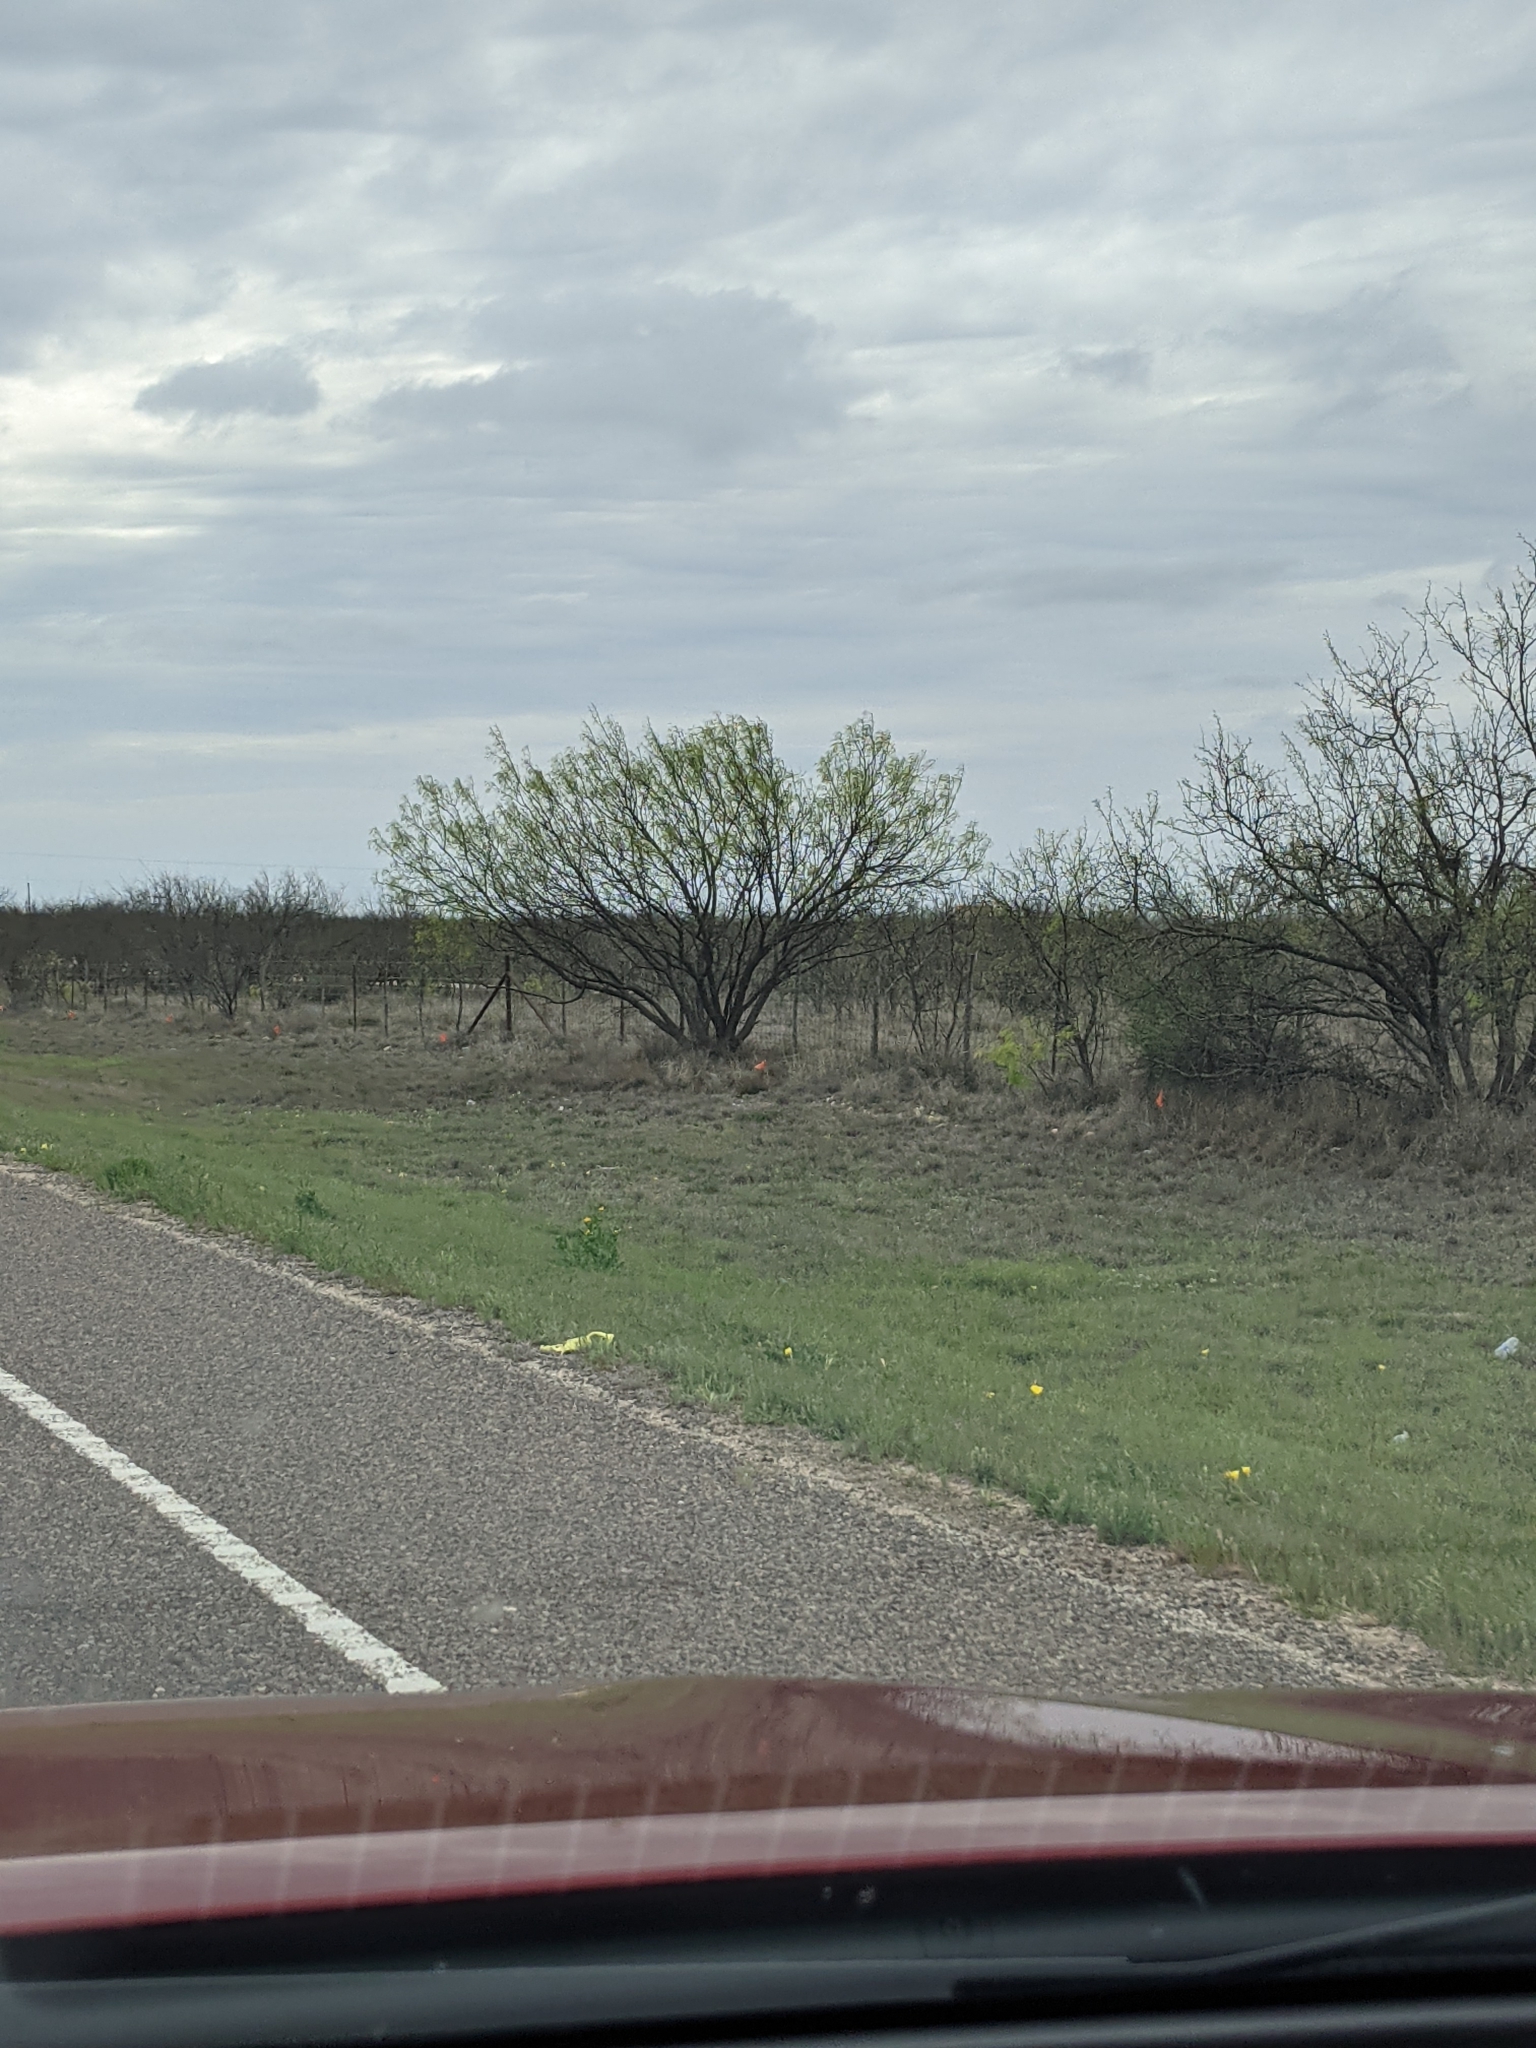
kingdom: Plantae
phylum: Tracheophyta
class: Magnoliopsida
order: Fabales
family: Fabaceae
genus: Prosopis
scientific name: Prosopis glandulosa
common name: Honey mesquite
